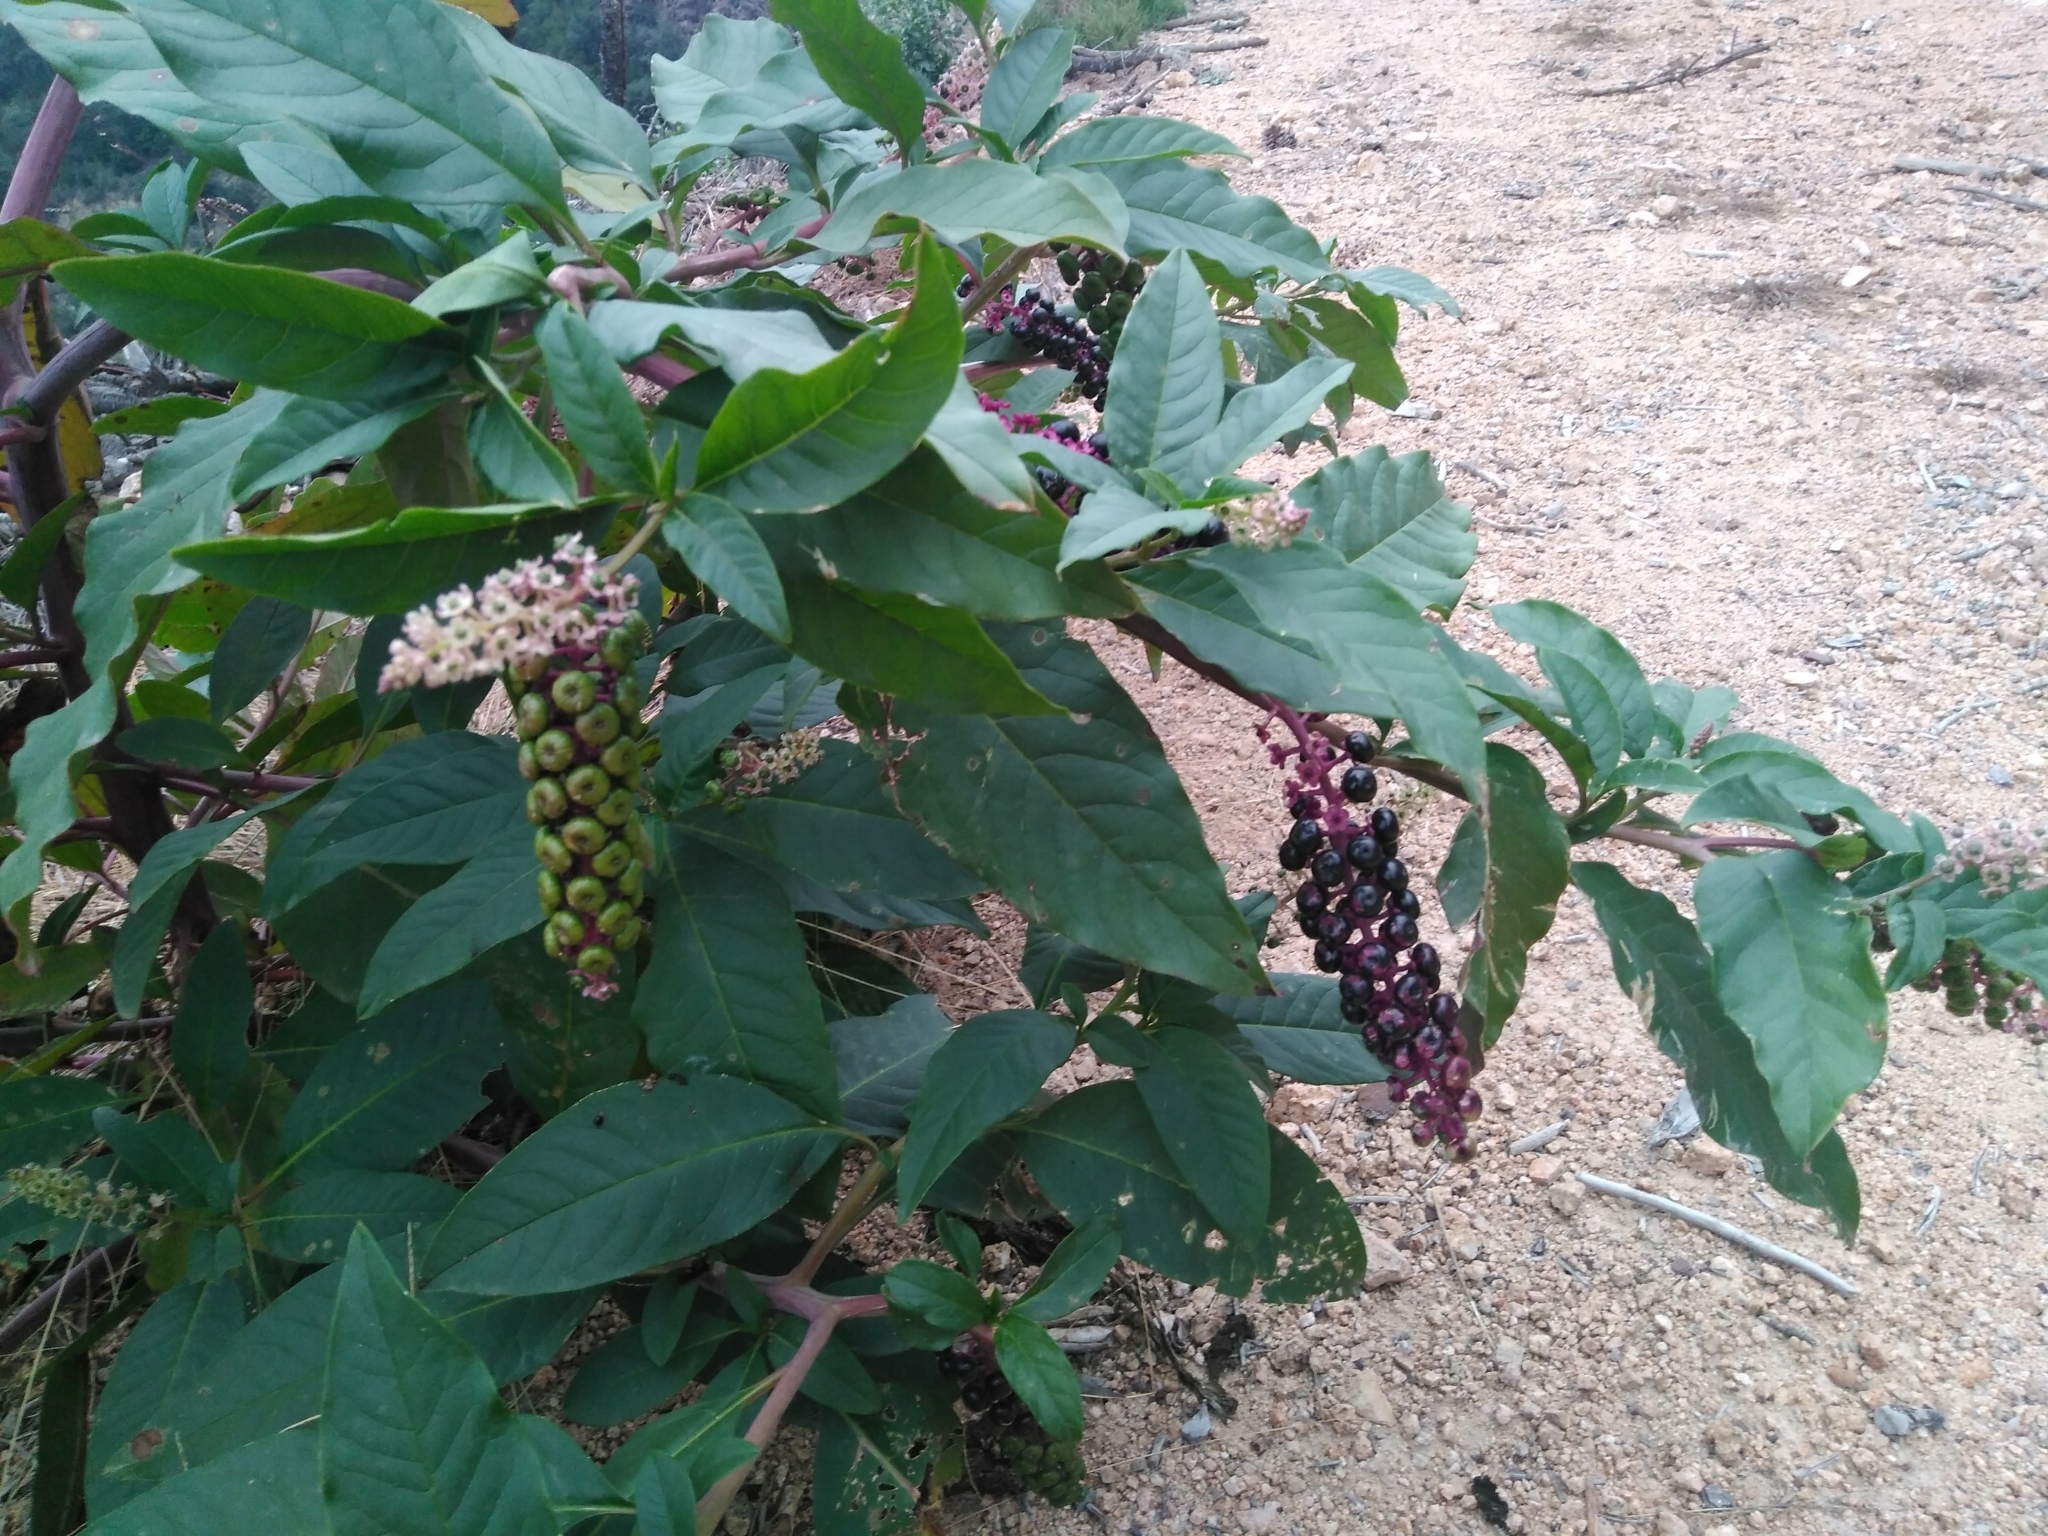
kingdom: Plantae
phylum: Tracheophyta
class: Magnoliopsida
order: Caryophyllales
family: Phytolaccaceae
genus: Phytolacca
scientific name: Phytolacca americana
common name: American pokeweed
